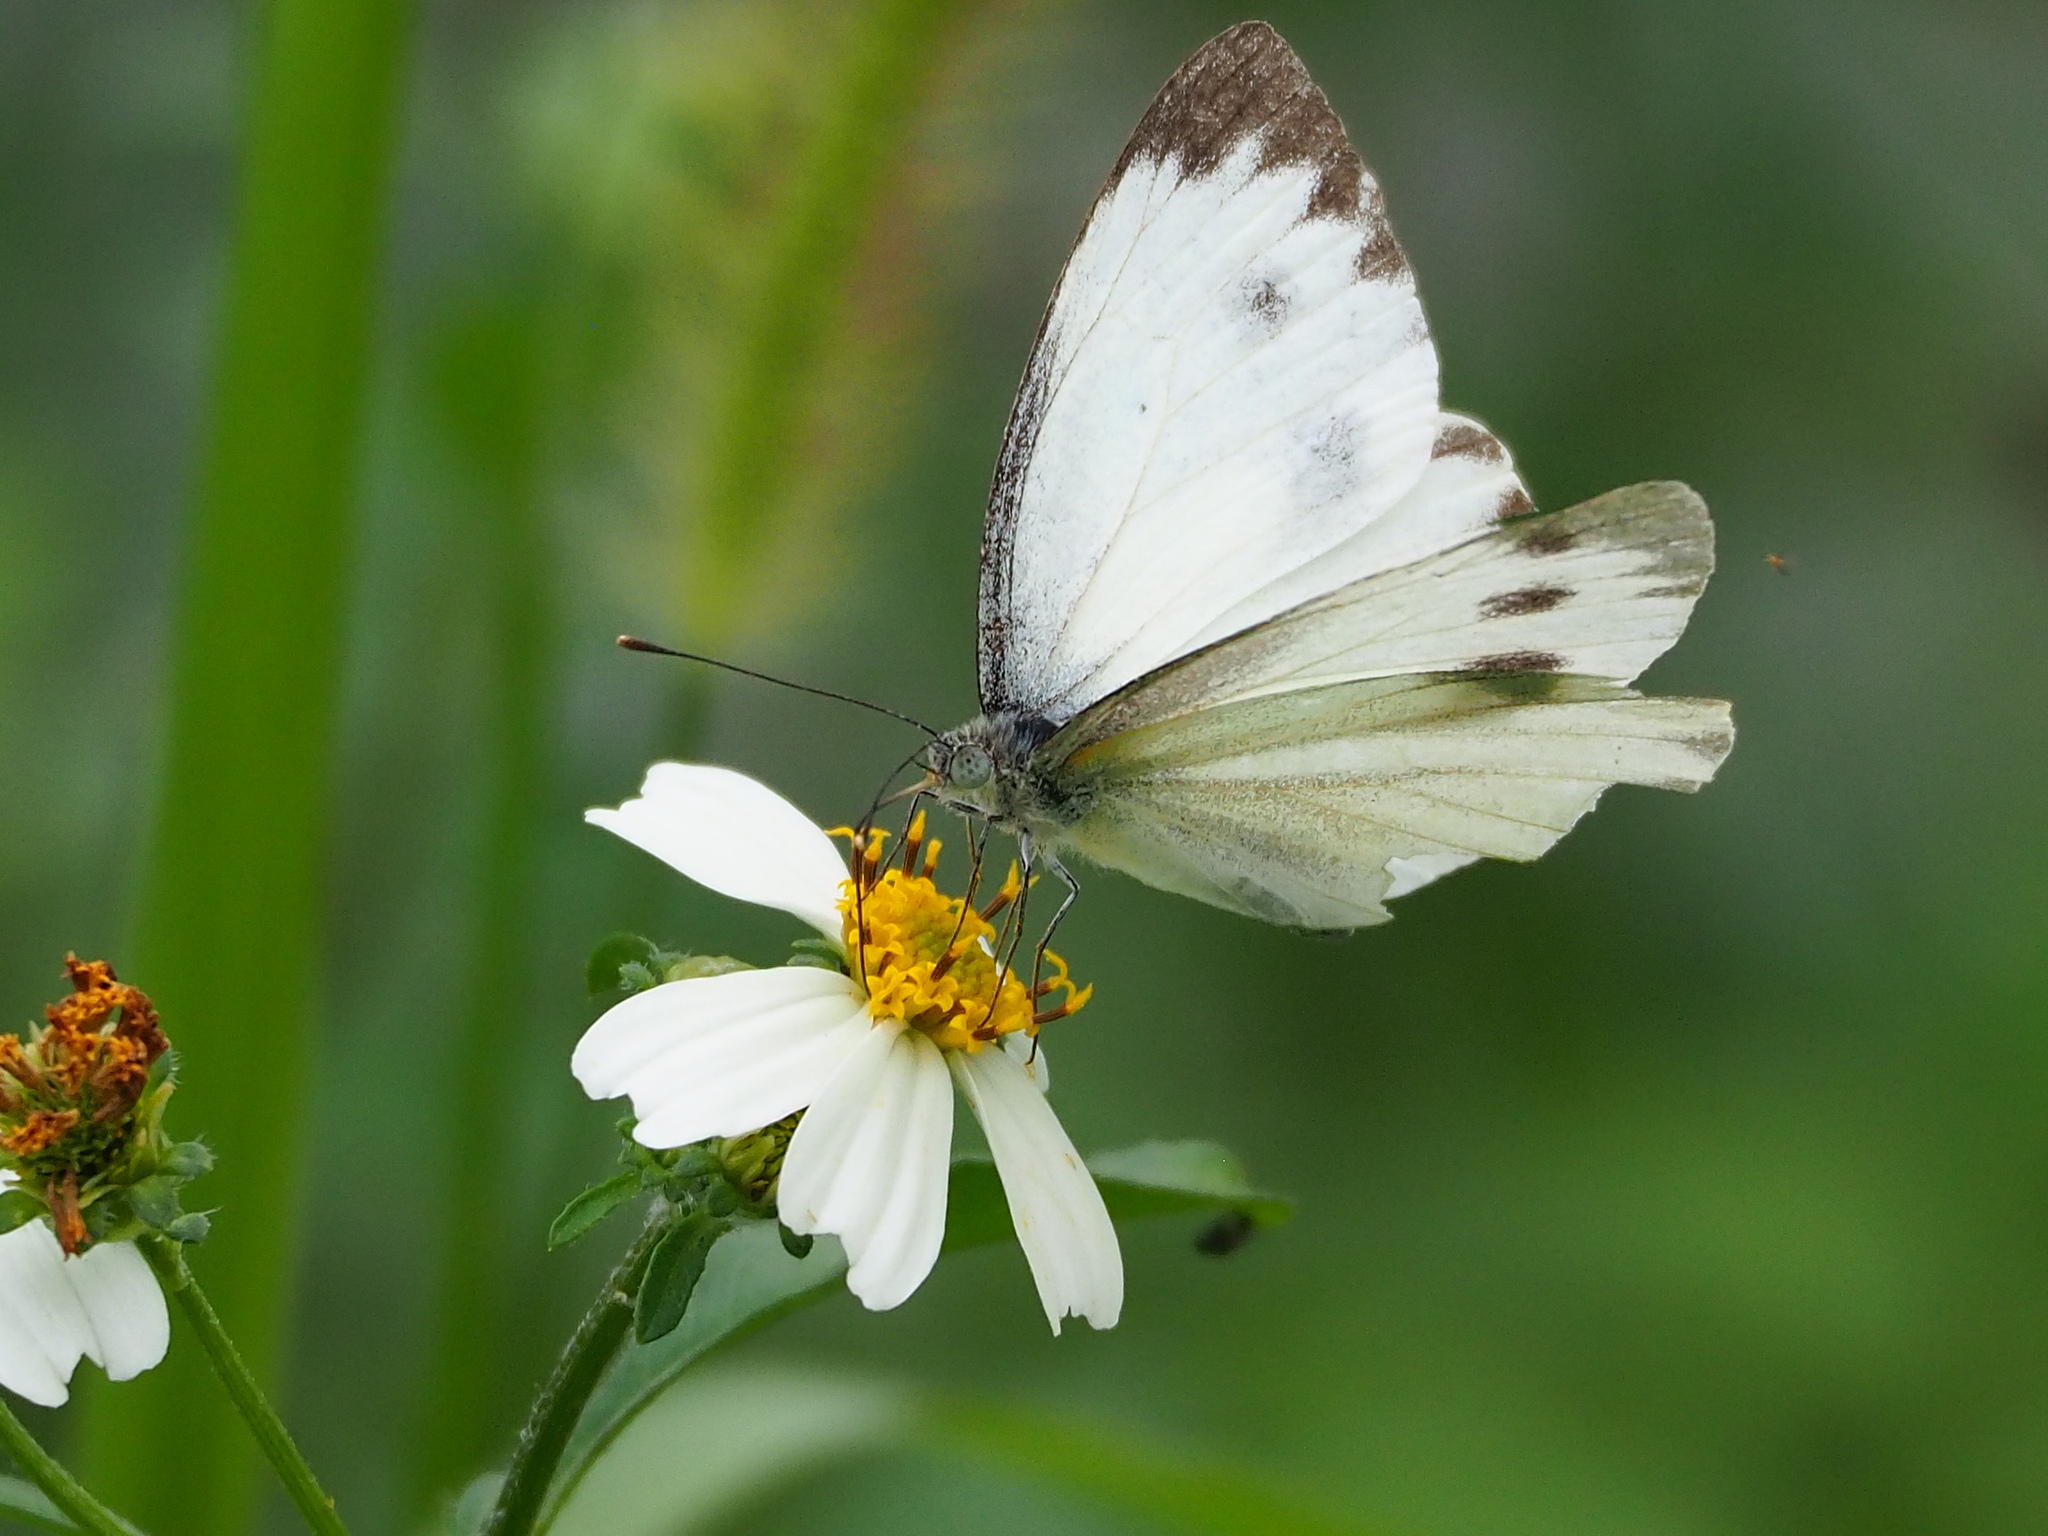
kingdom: Animalia
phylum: Arthropoda
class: Insecta
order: Lepidoptera
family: Pieridae
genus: Pieris
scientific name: Pieris canidia
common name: Indian cabbage white
